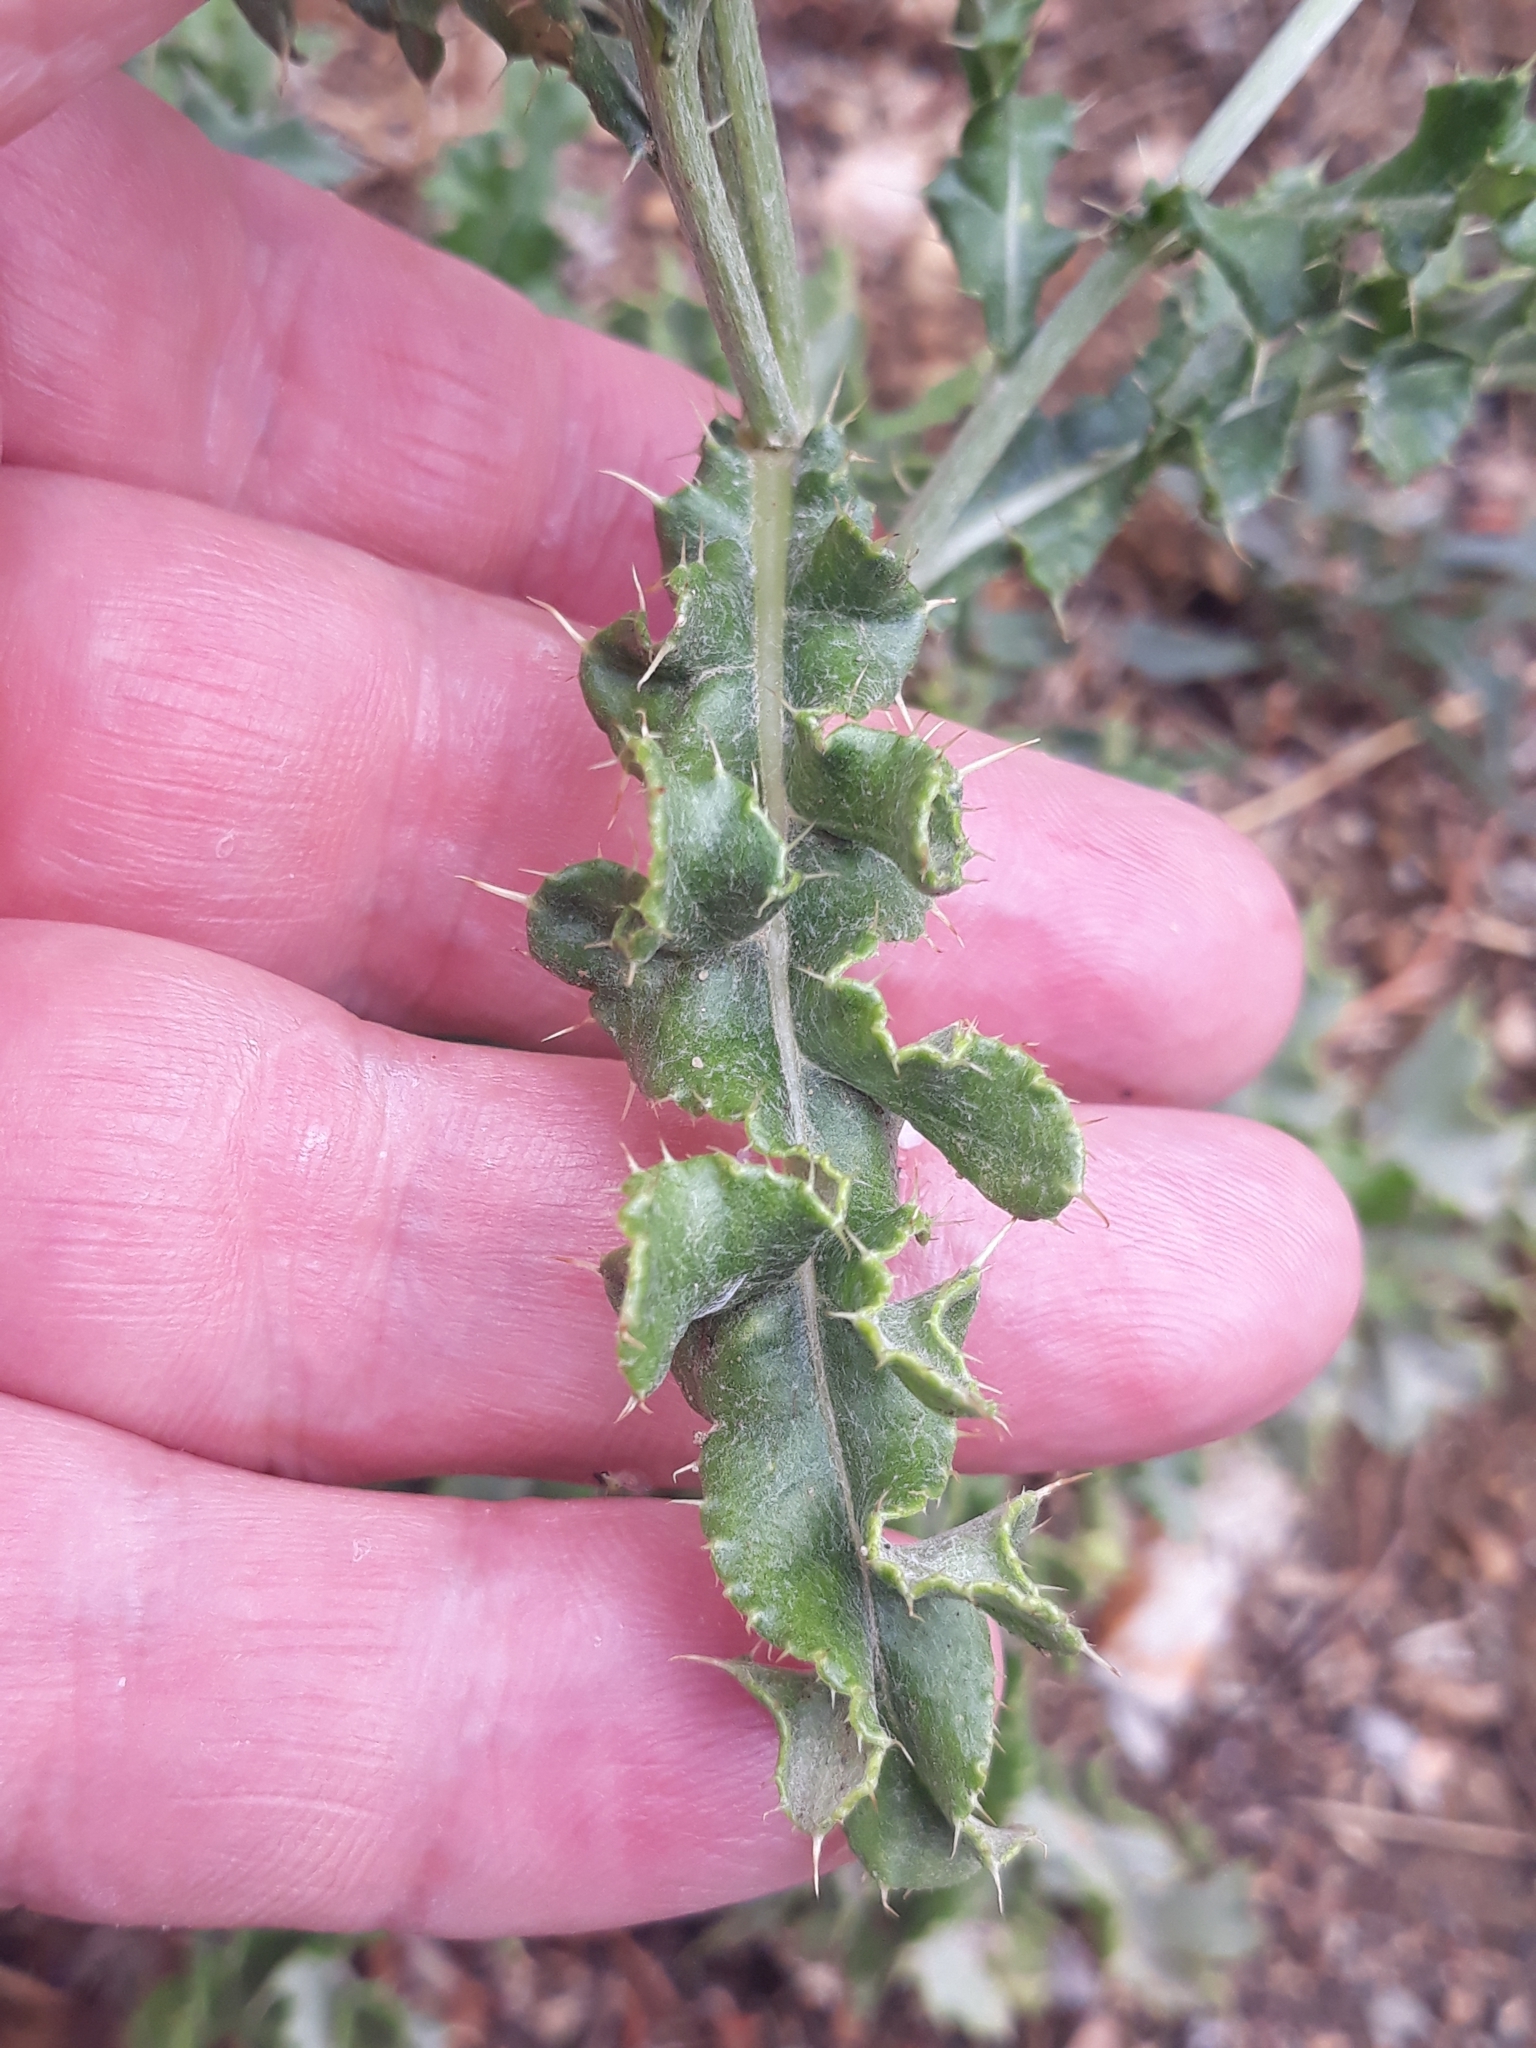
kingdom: Plantae
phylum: Tracheophyta
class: Magnoliopsida
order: Asterales
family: Asteraceae
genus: Cirsium
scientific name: Cirsium arvense
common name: Creeping thistle
